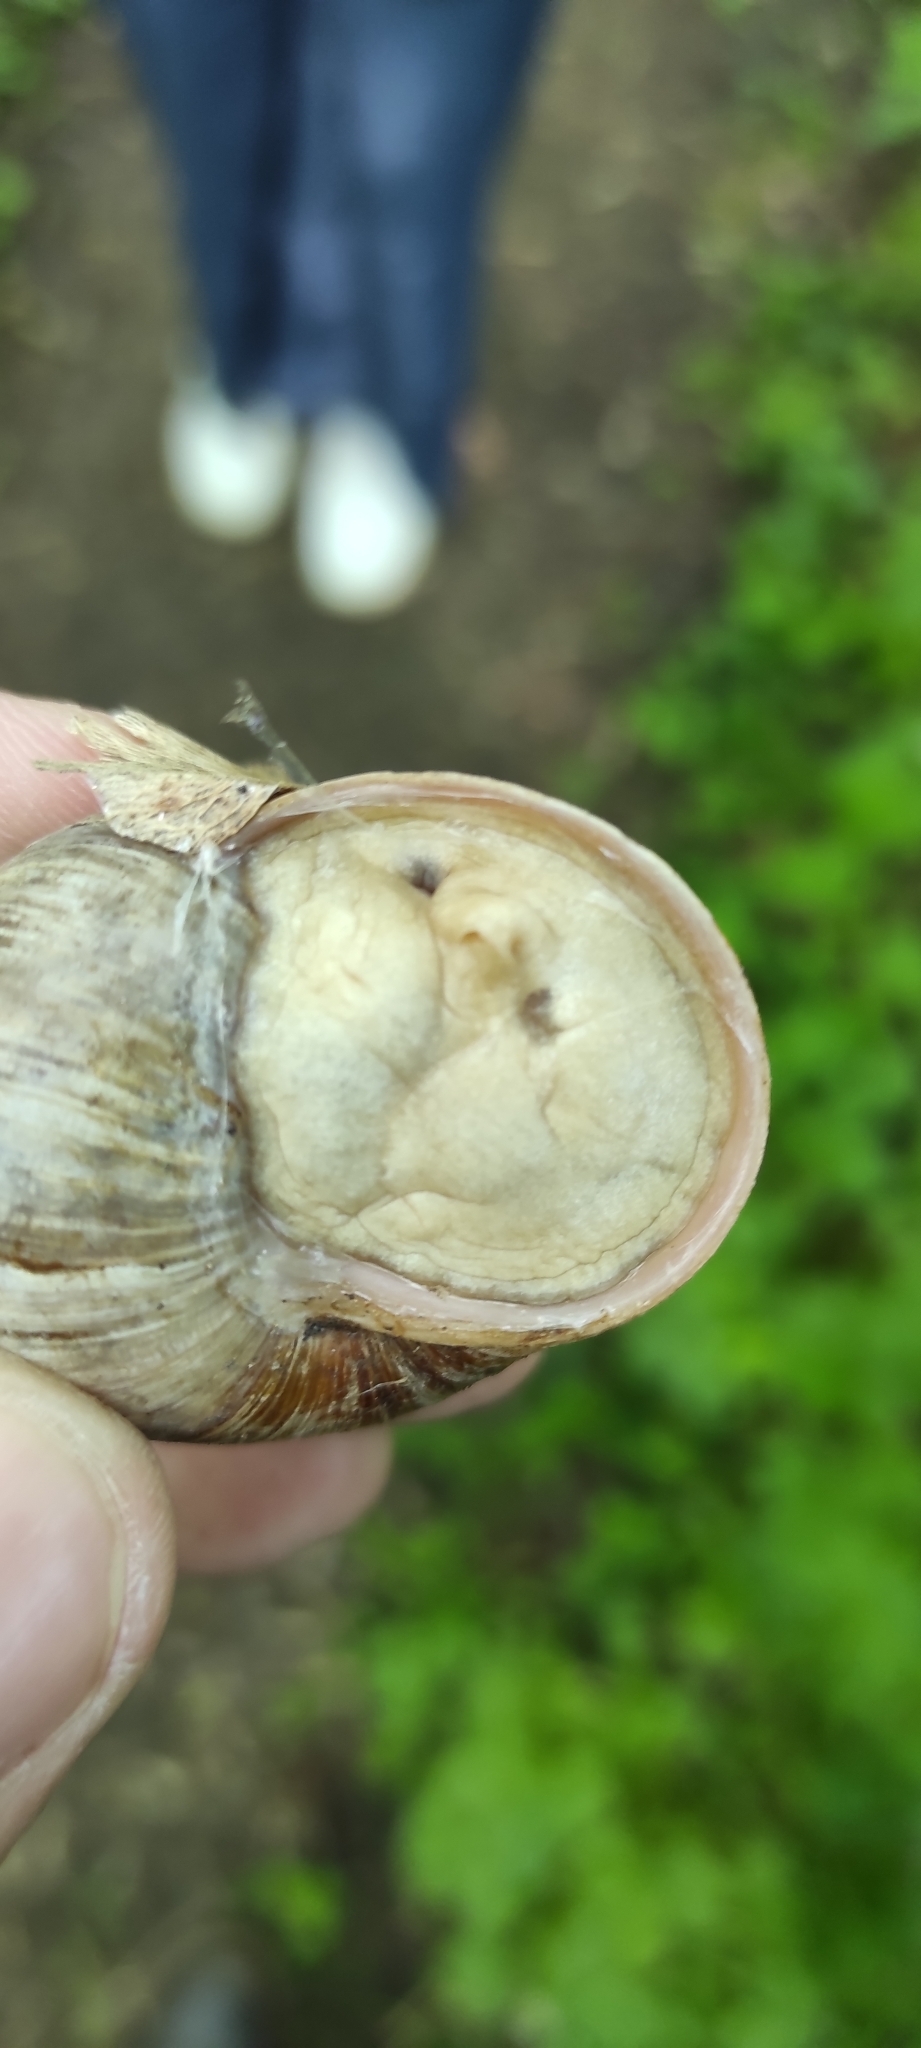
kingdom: Animalia
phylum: Mollusca
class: Gastropoda
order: Stylommatophora
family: Helicidae
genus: Helix
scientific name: Helix pomatia
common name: Roman snail
